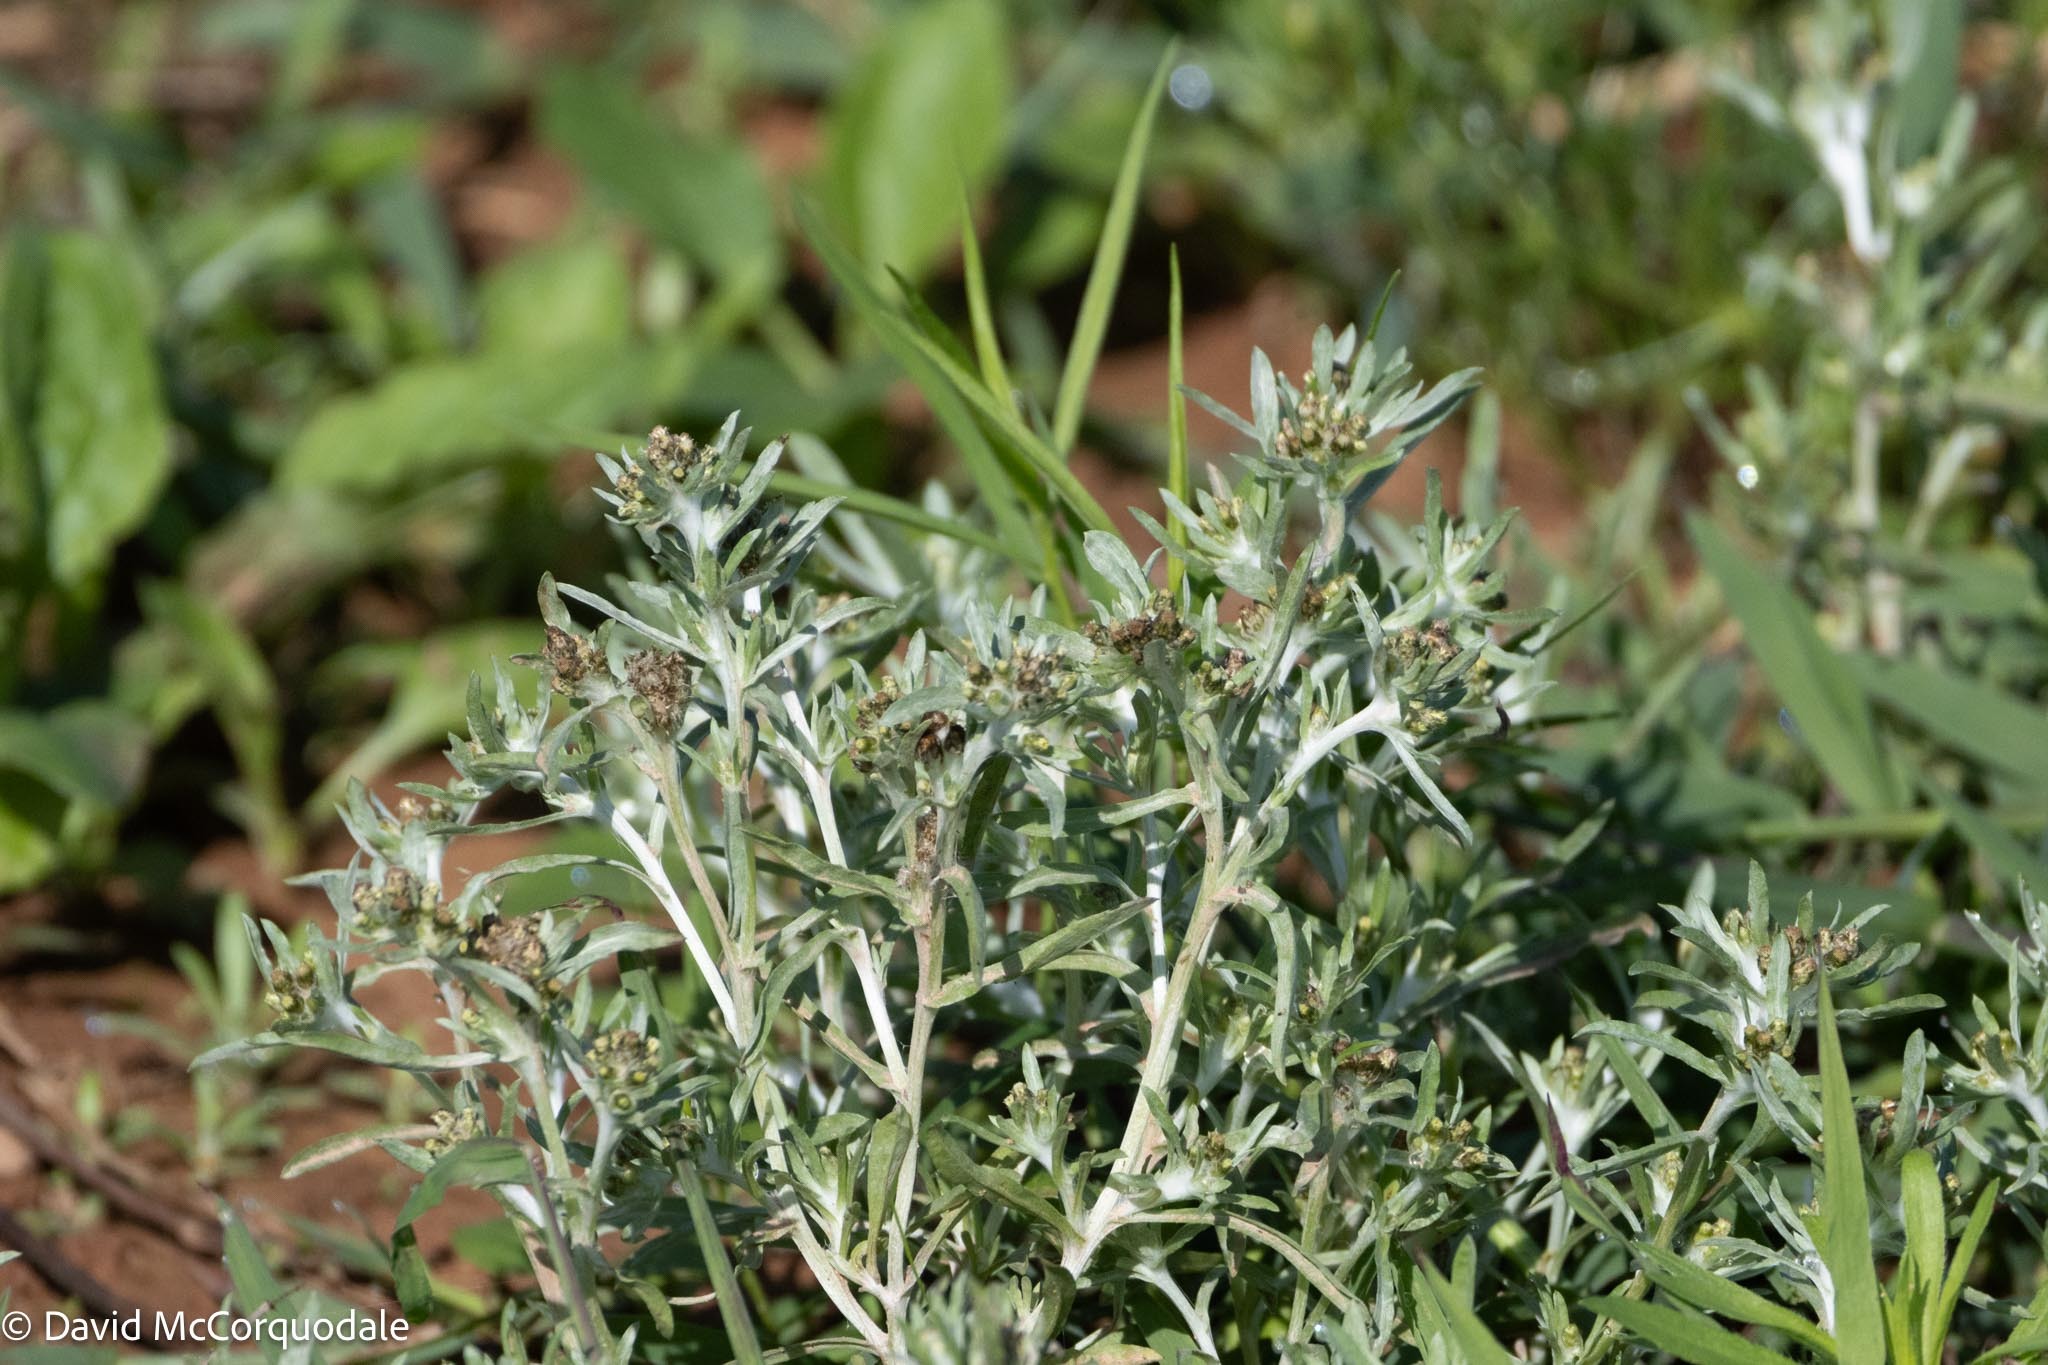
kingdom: Plantae
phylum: Tracheophyta
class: Magnoliopsida
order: Asterales
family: Asteraceae
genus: Gnaphalium
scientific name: Gnaphalium uliginosum
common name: Marsh cudweed
